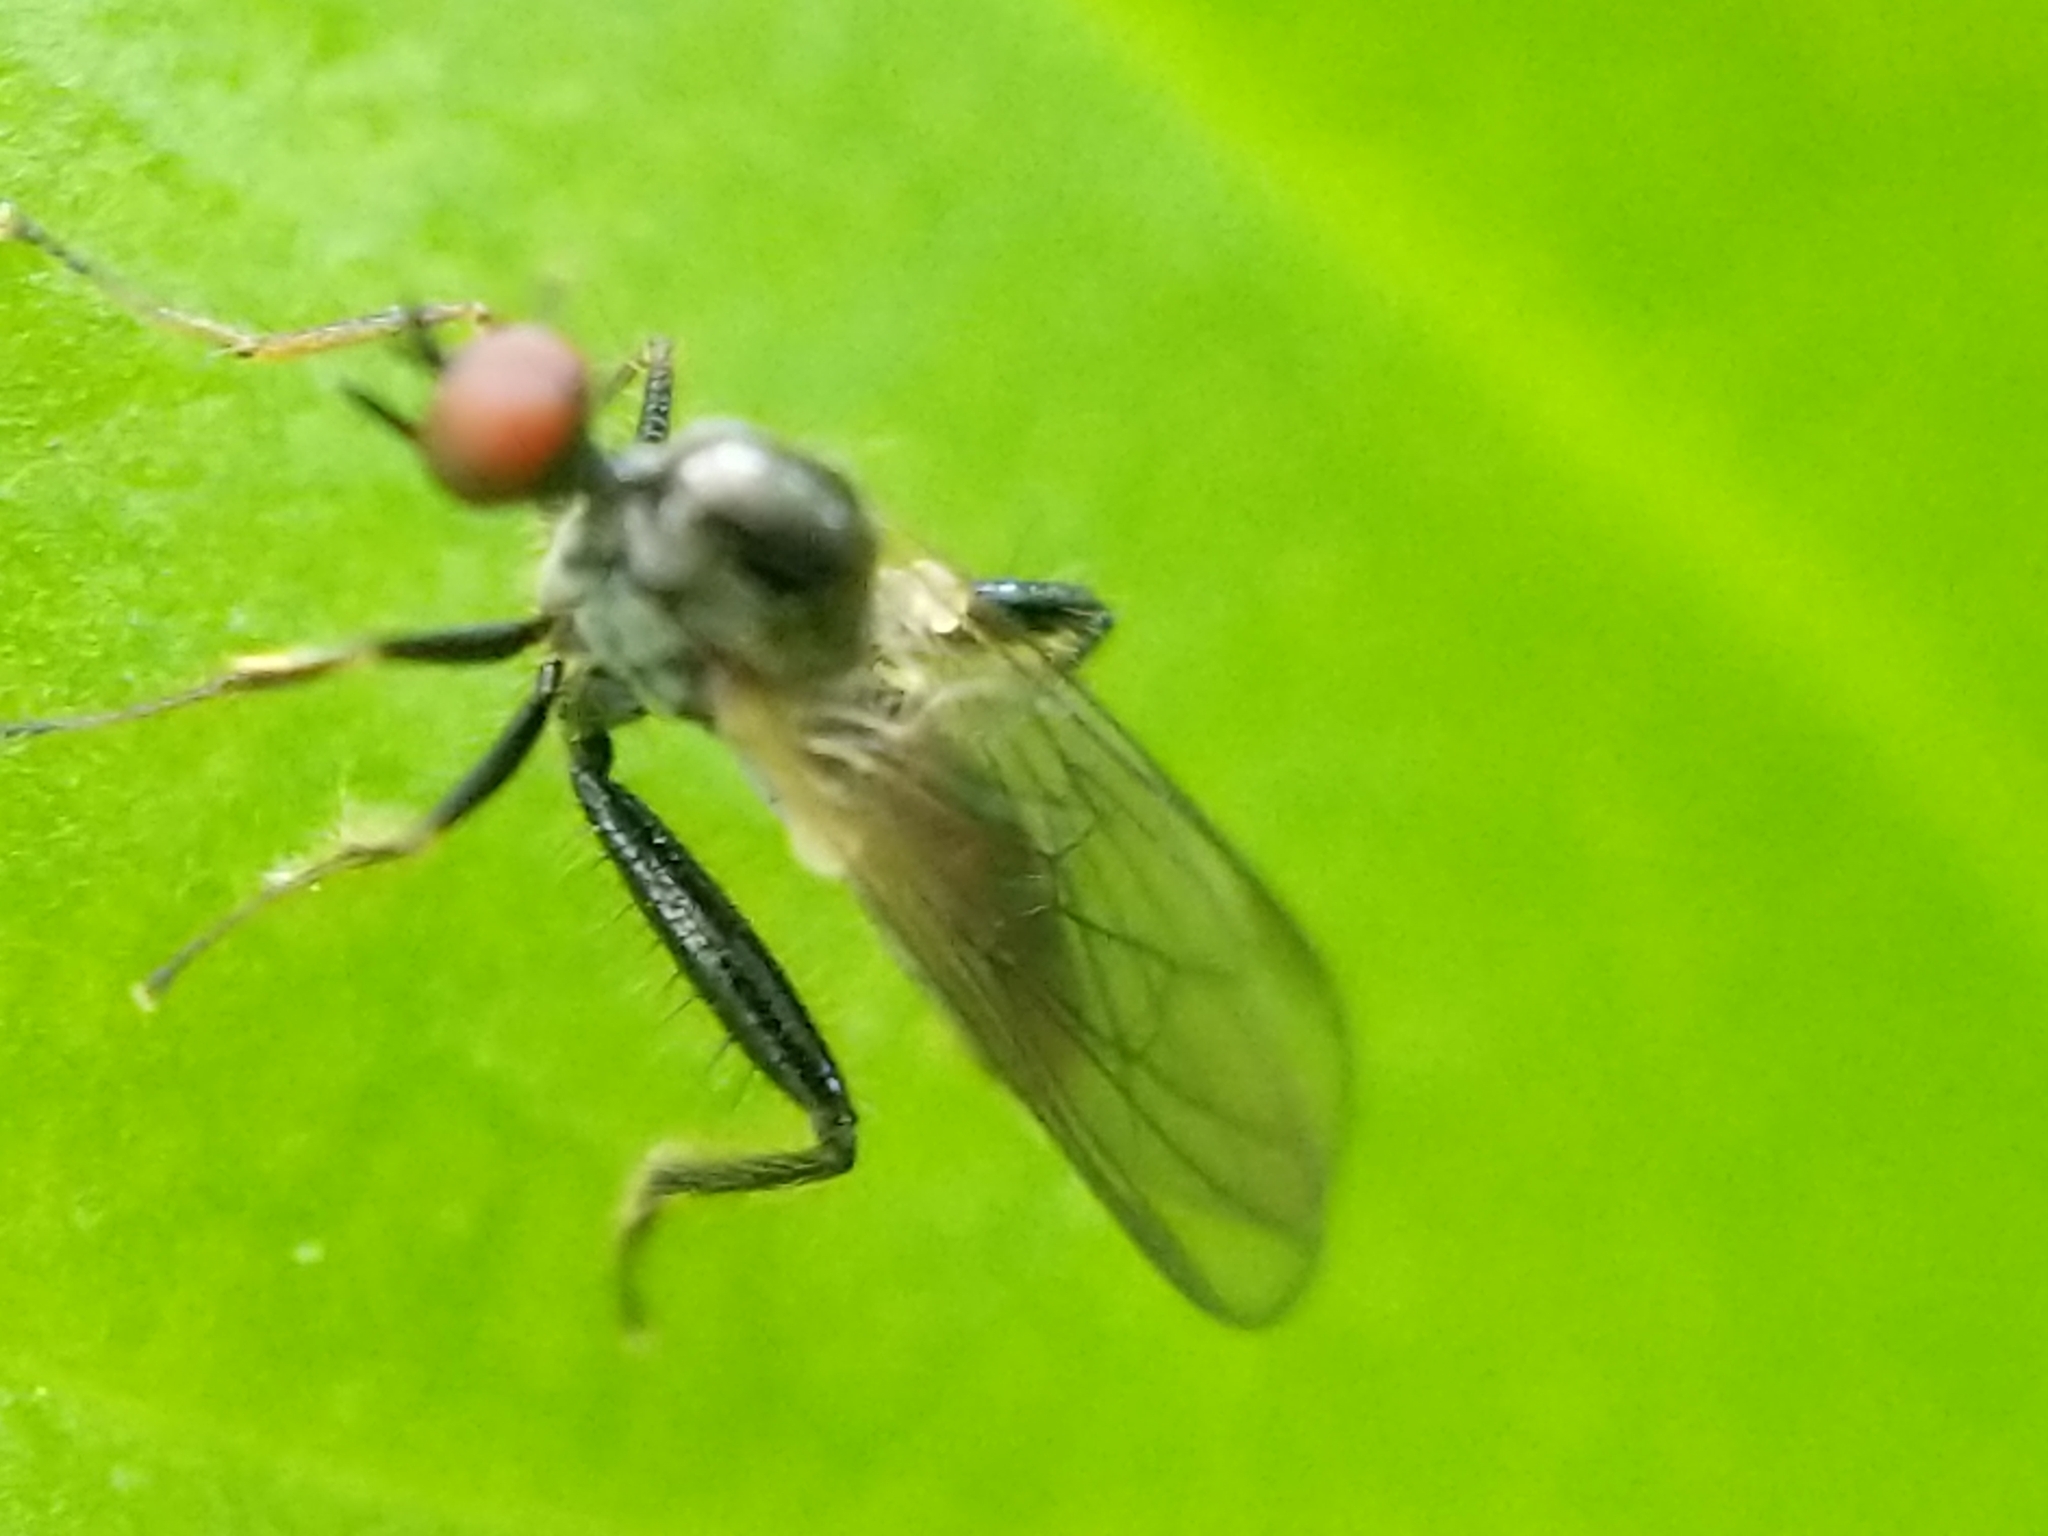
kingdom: Animalia
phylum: Arthropoda
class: Insecta
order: Diptera
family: Hybotidae
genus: Hybos
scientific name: Hybos reversus
